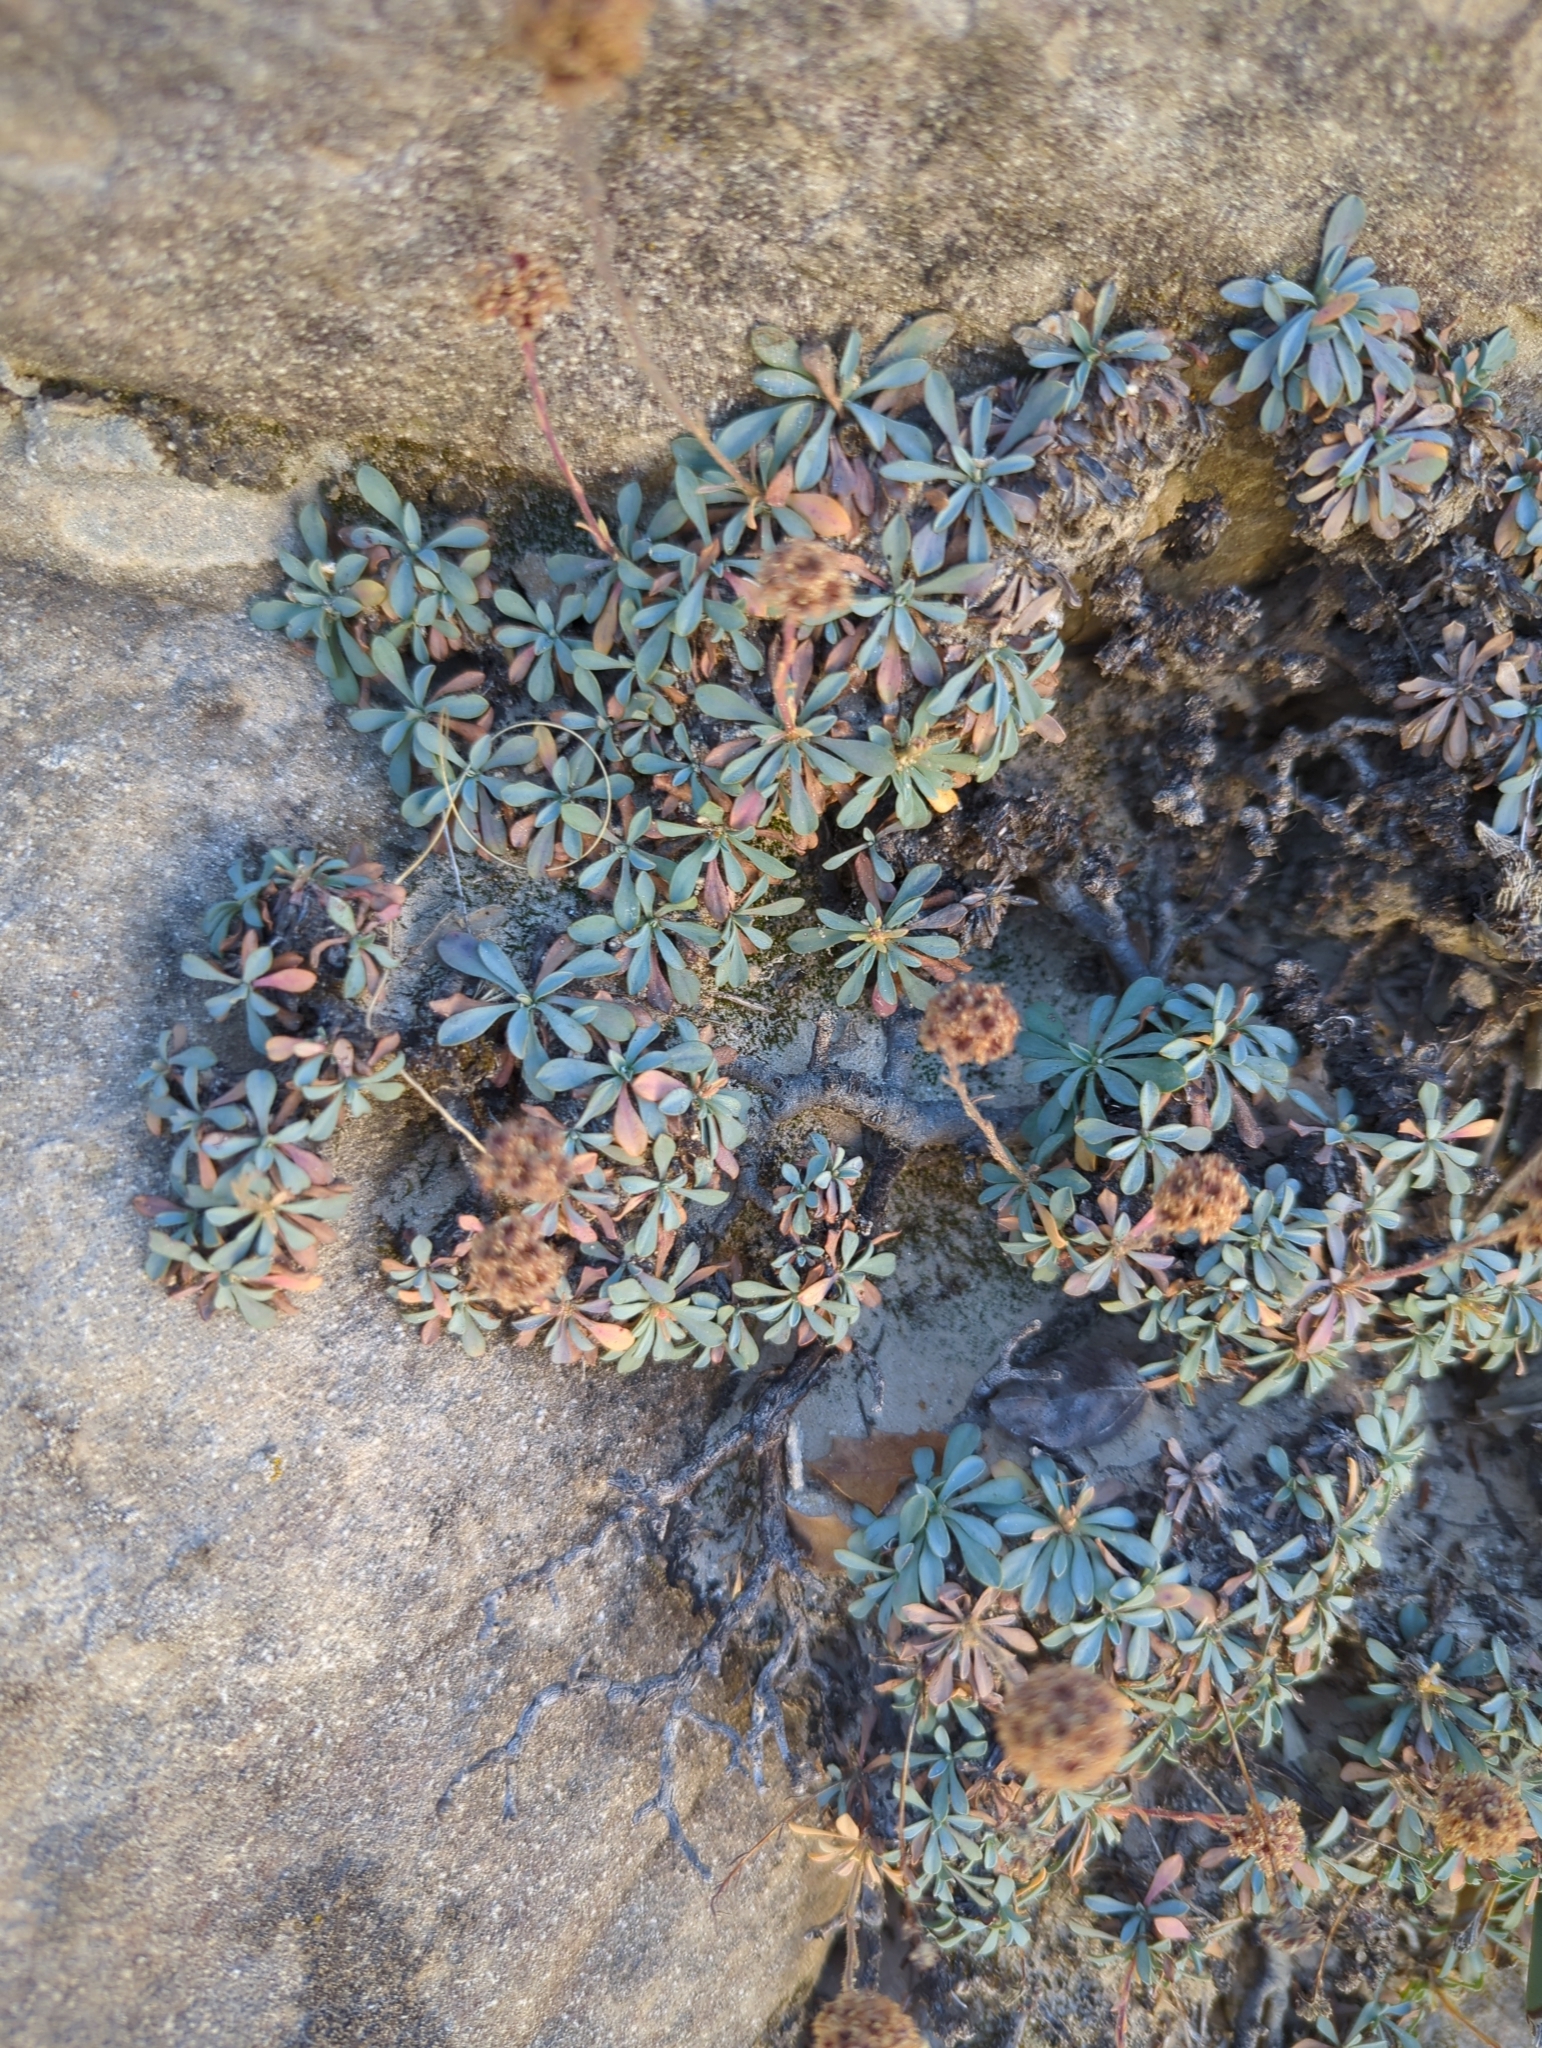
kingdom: Plantae
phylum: Tracheophyta
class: Magnoliopsida
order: Rosales
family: Rosaceae
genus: Petrophytum
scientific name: Petrophytum caespitosum
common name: Mat rockspirea
